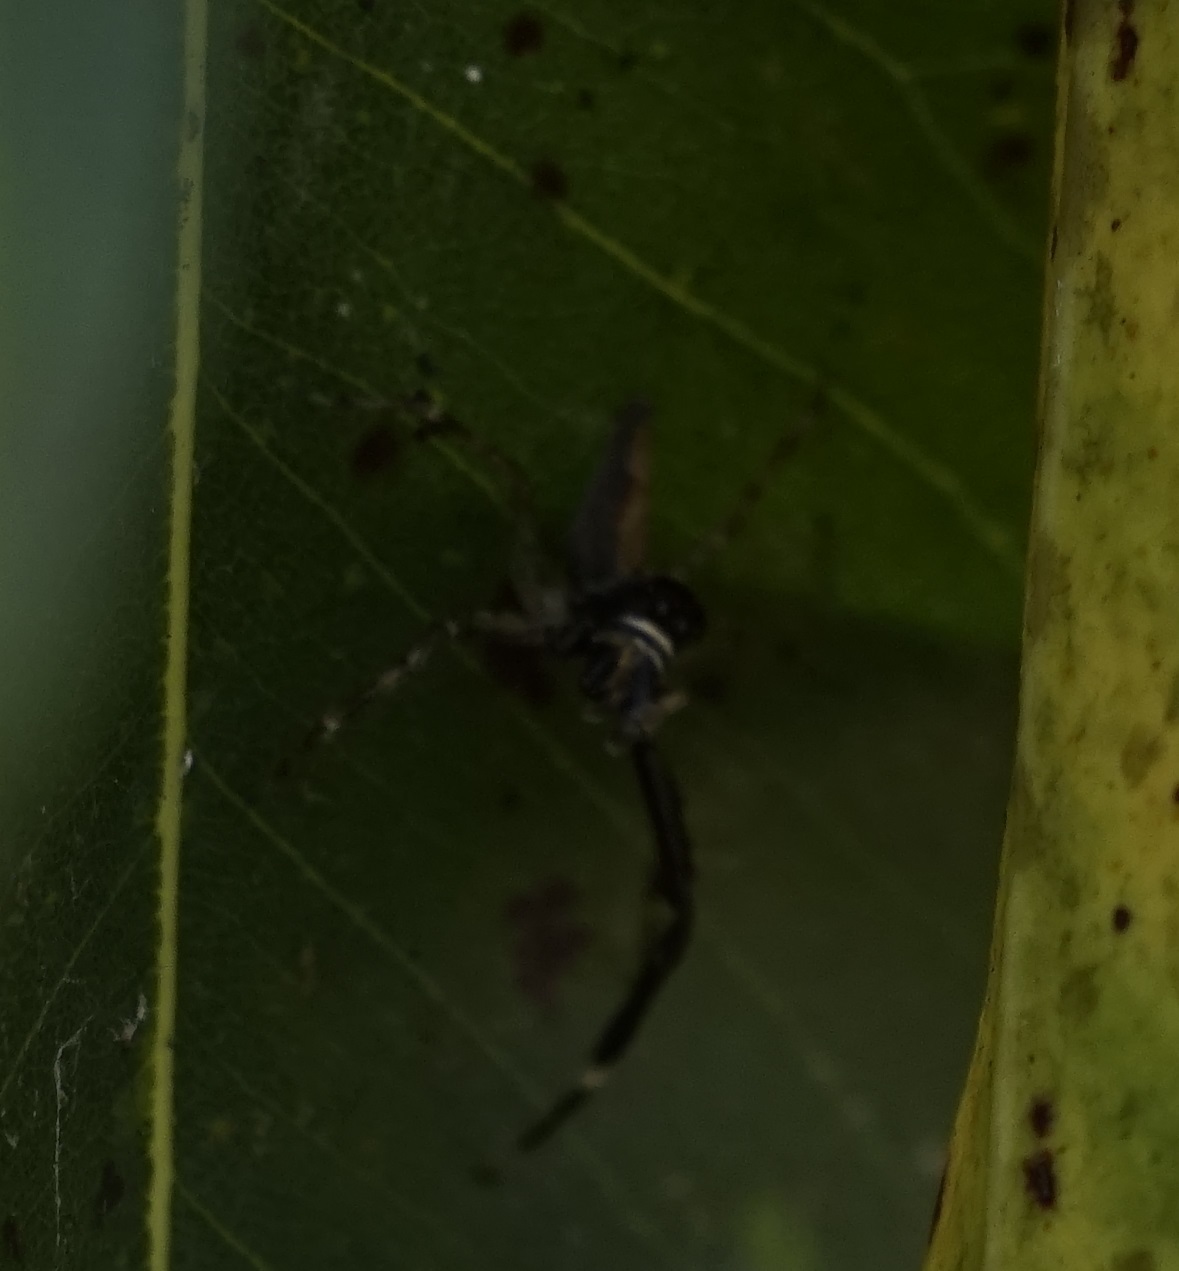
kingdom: Animalia
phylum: Arthropoda
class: Arachnida
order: Araneae
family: Salticidae
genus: Helpis
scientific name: Helpis minitabunda
